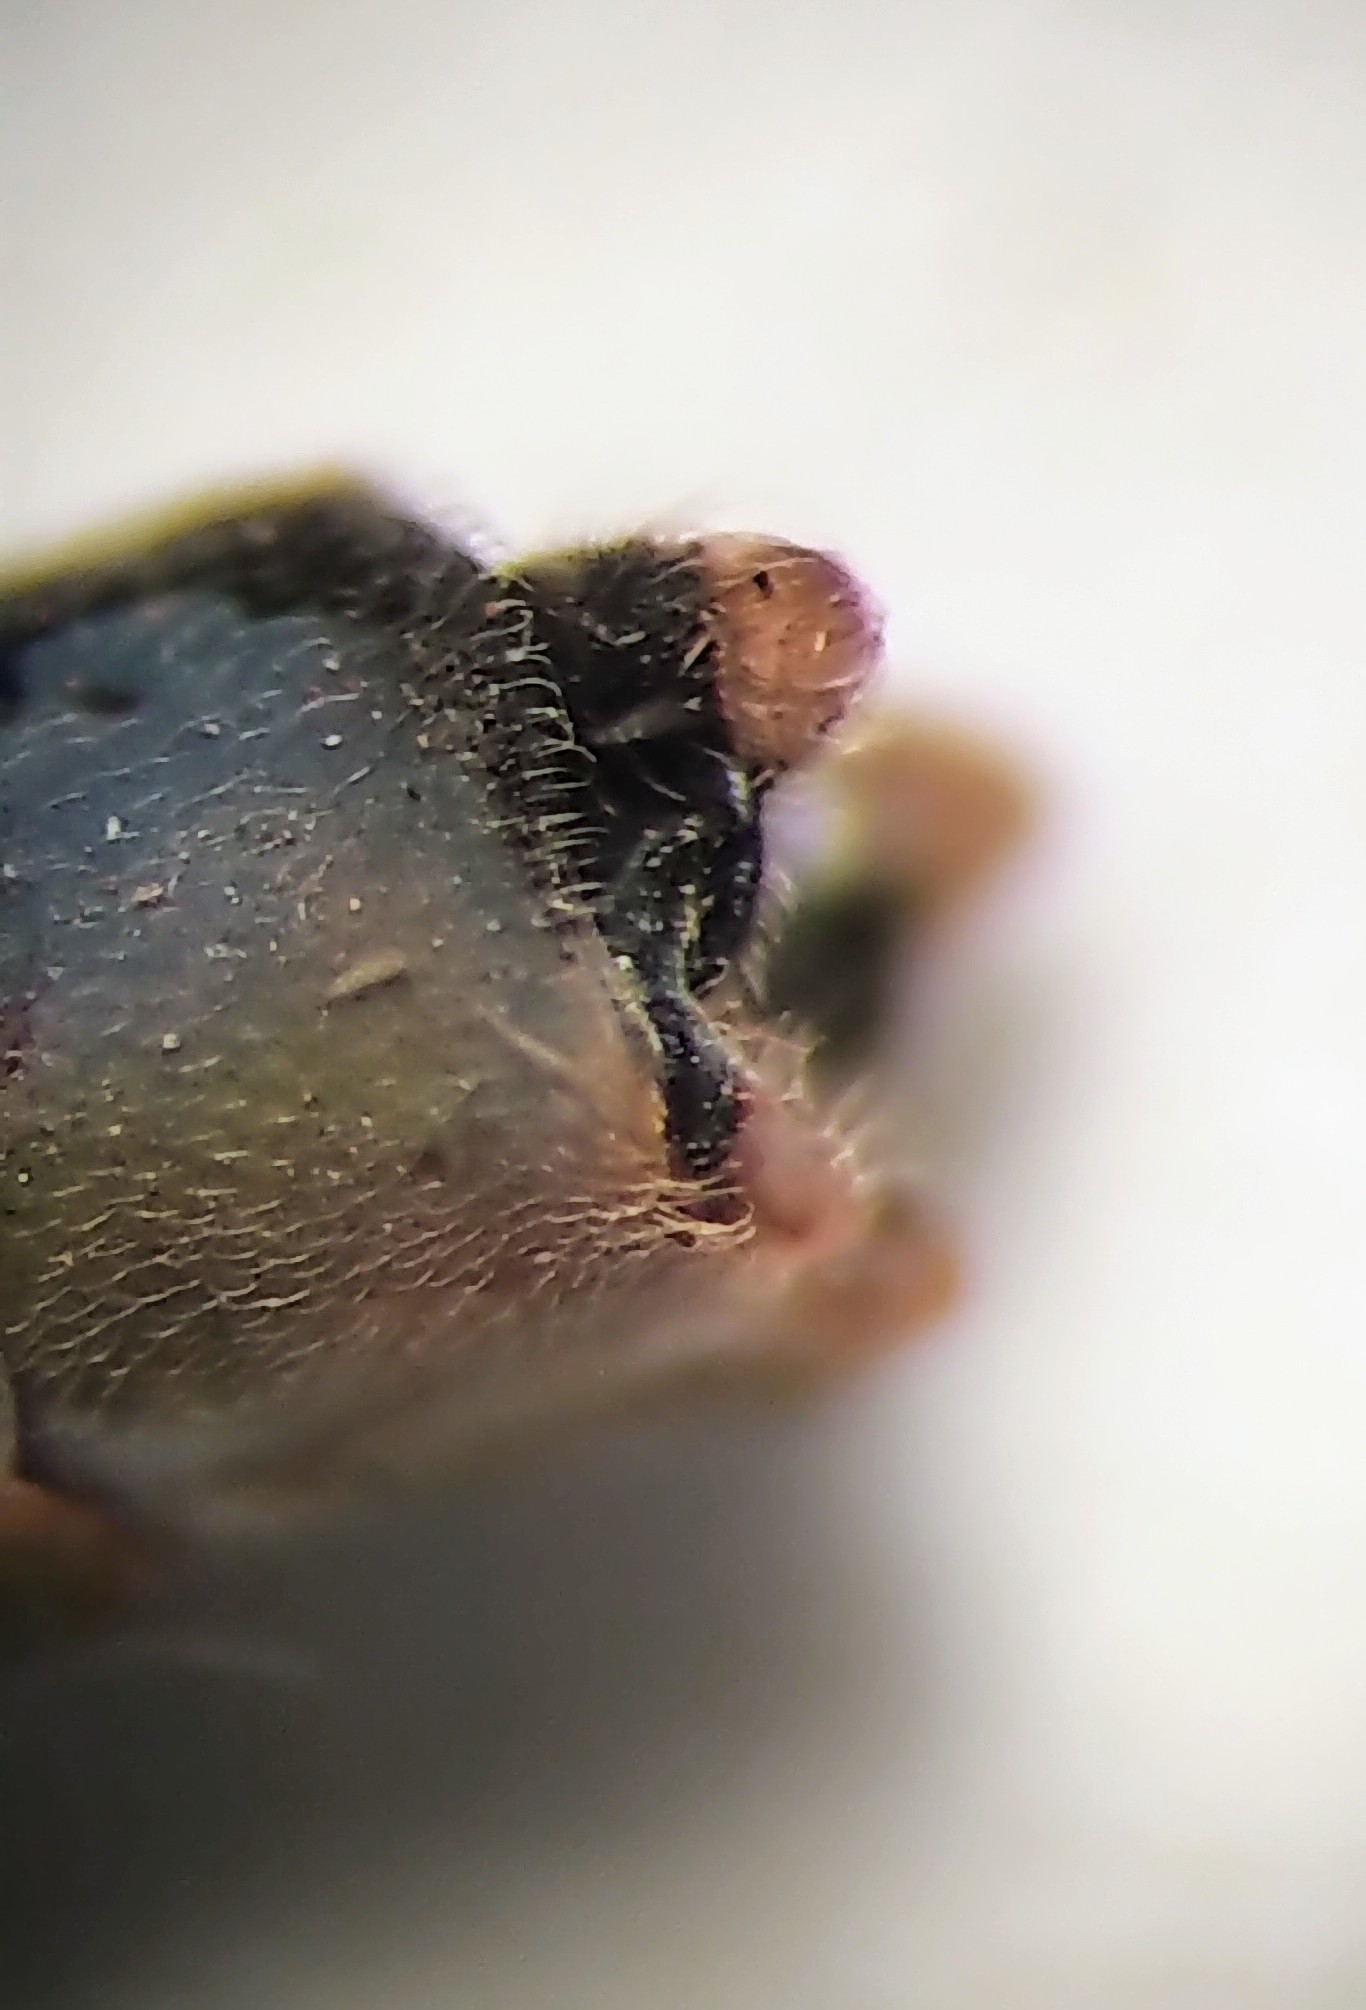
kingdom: Animalia
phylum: Arthropoda
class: Insecta
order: Odonata
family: Coenagrionidae
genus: Coenagrion
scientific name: Coenagrion angulatum
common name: Prairie bluet
